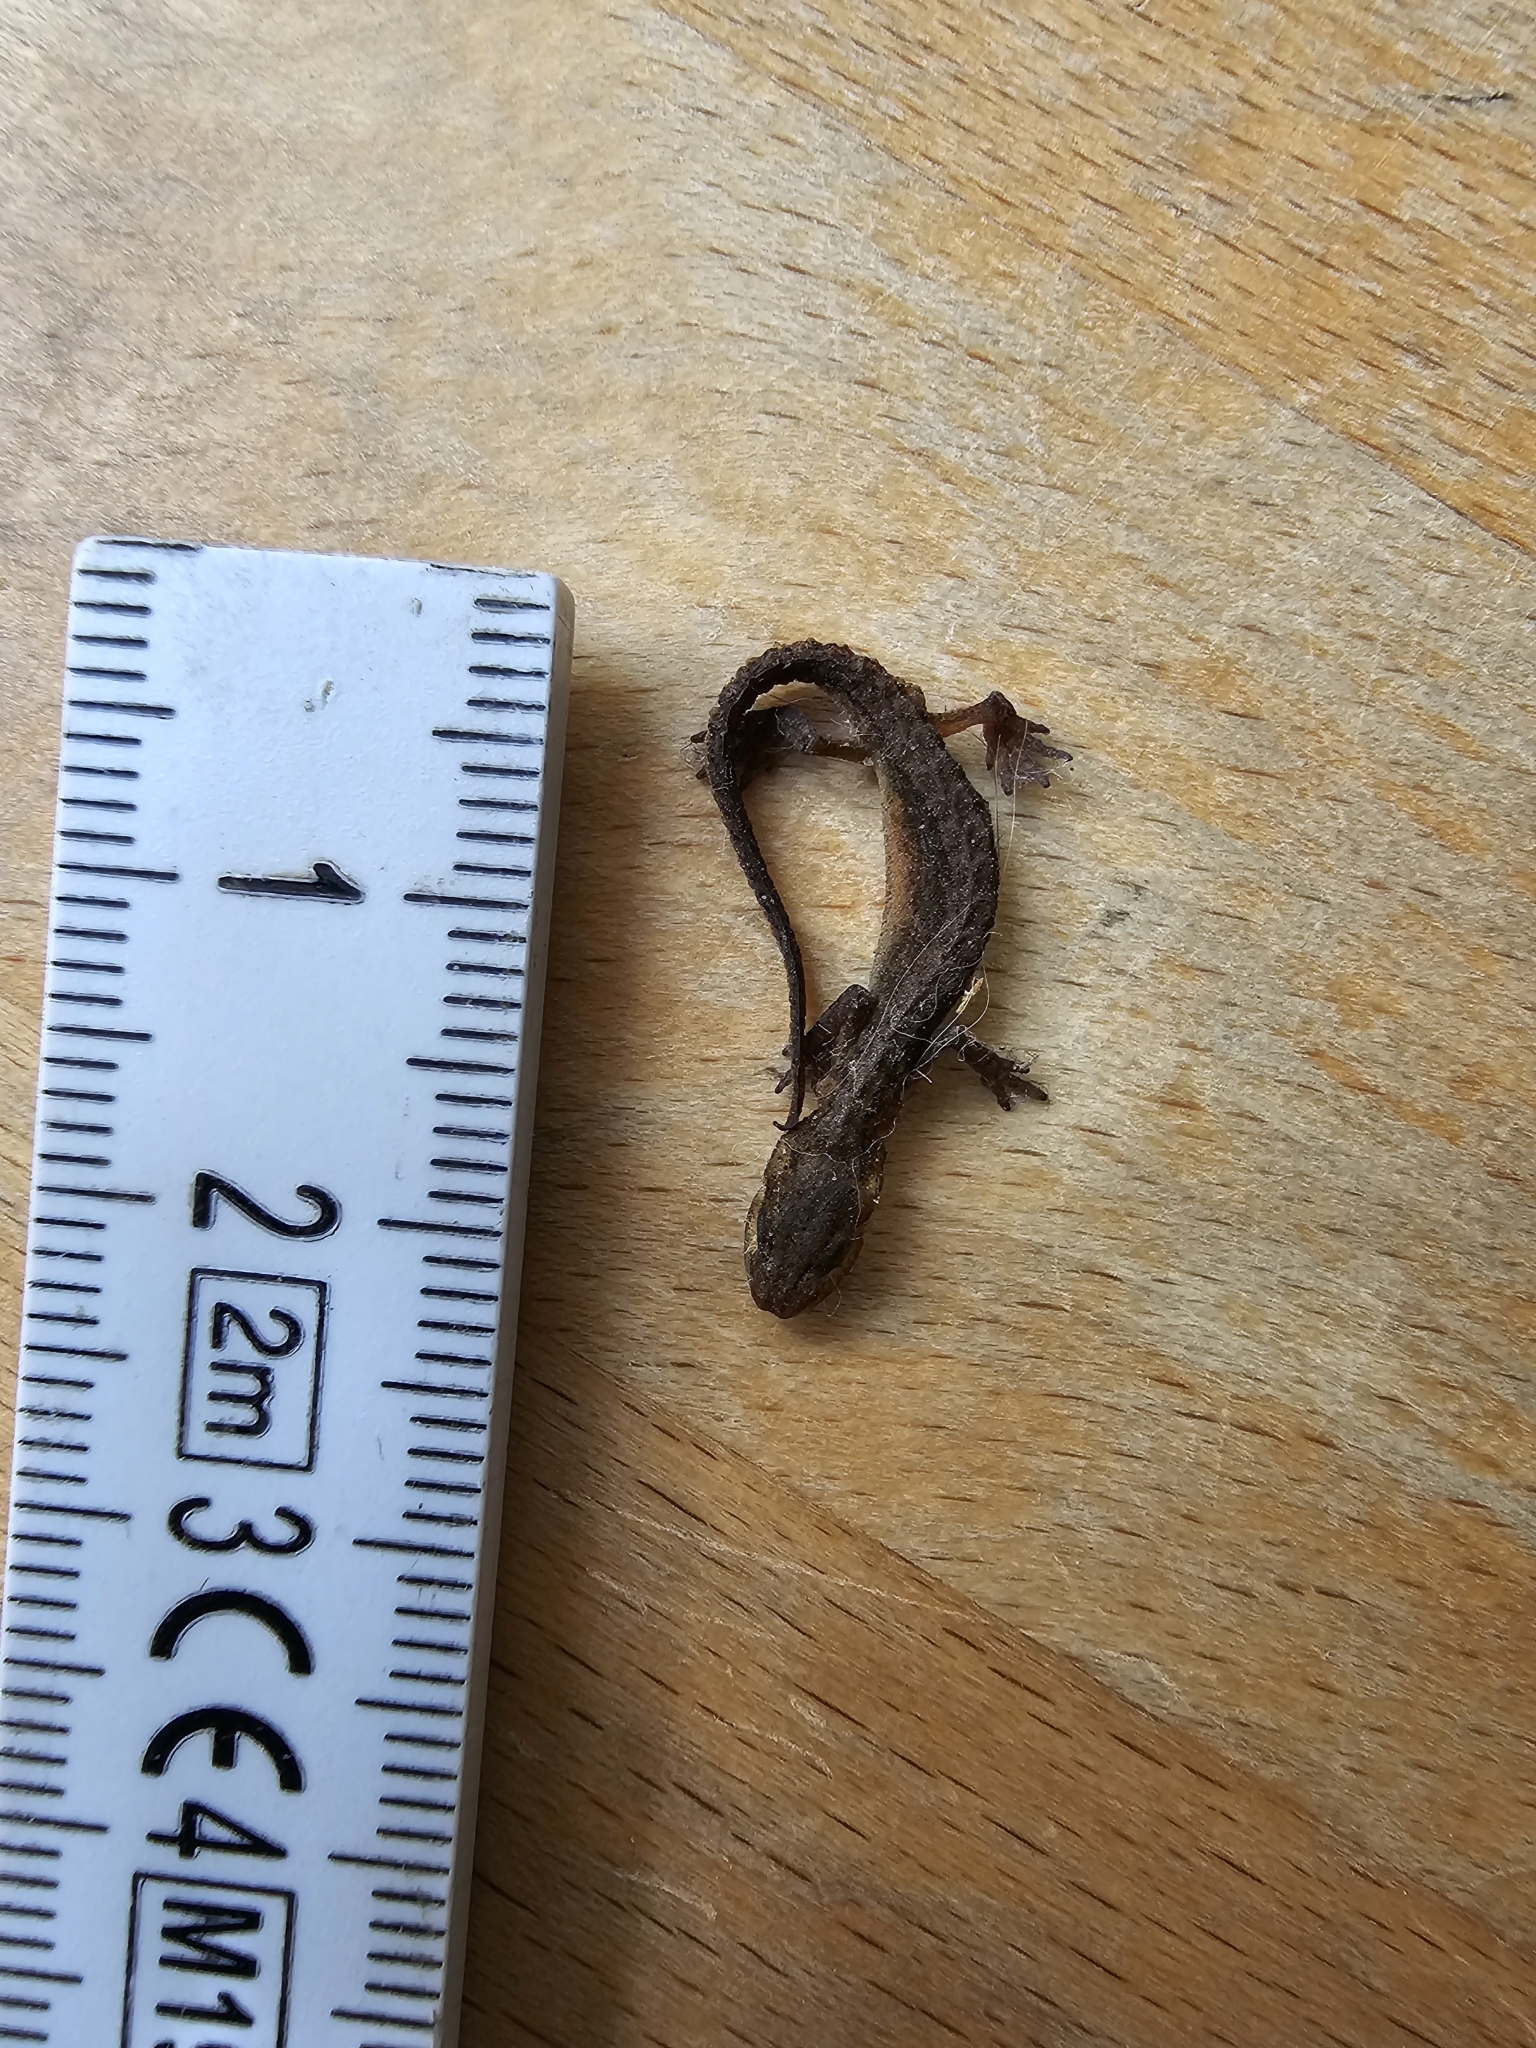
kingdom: Animalia
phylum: Chordata
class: Amphibia
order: Caudata
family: Salamandridae
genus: Lissotriton
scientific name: Lissotriton vulgaris
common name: Smooth newt
